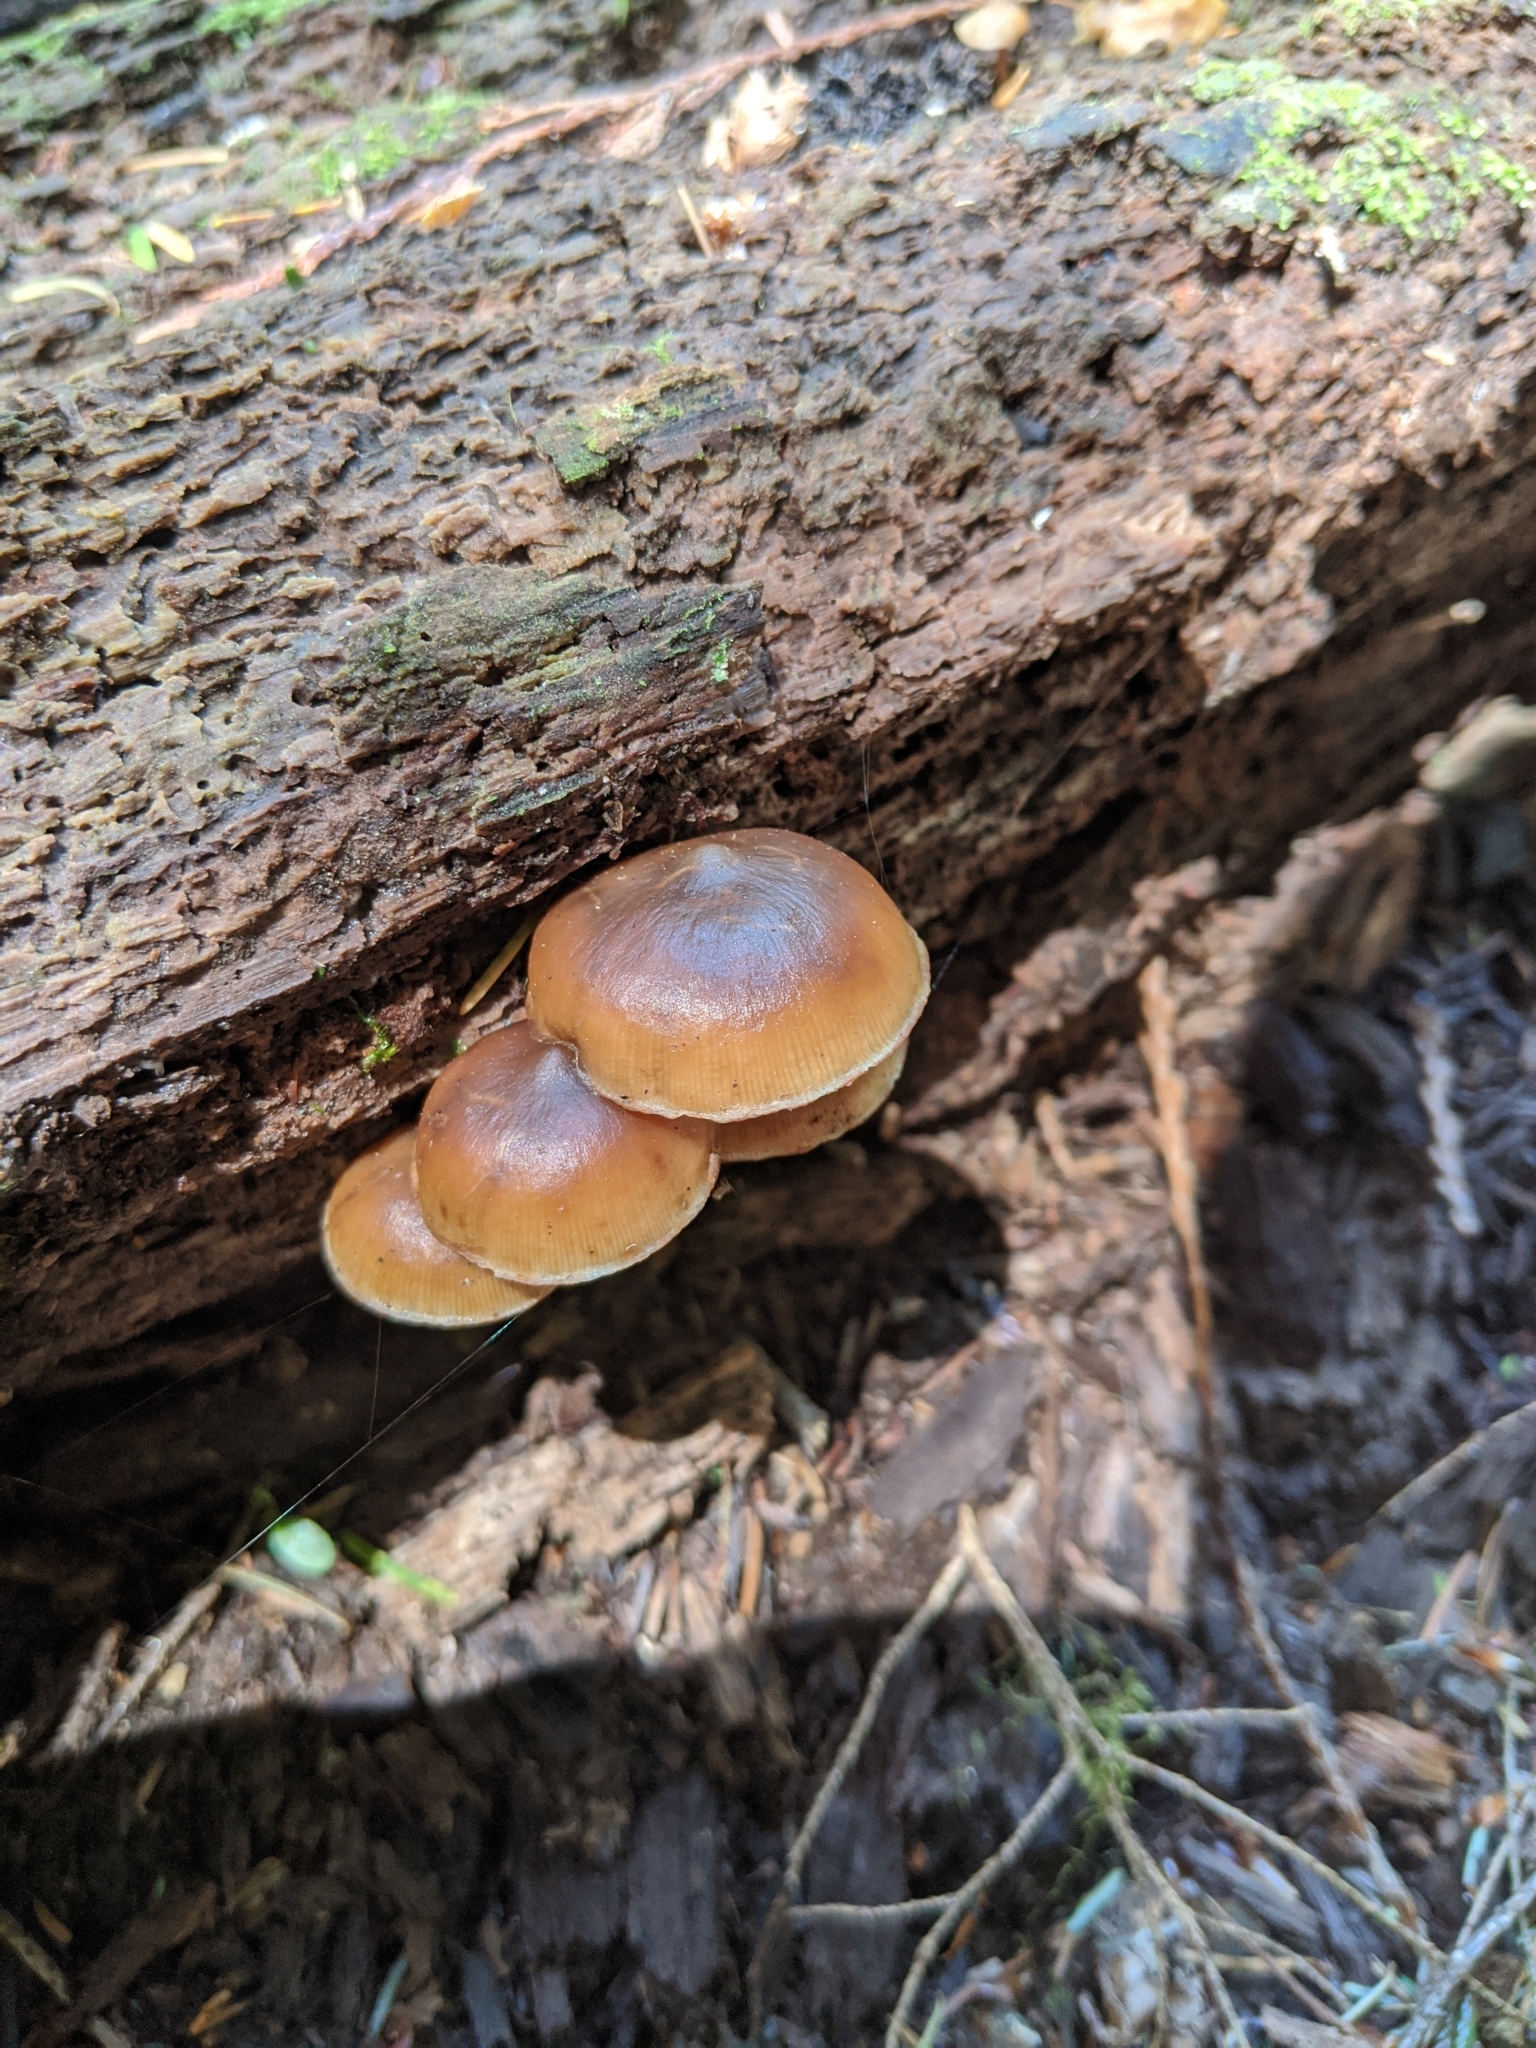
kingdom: Fungi
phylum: Basidiomycota
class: Agaricomycetes
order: Agaricales
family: Hymenogastraceae
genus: Galerina
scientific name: Galerina marginata
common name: Funeral bell
